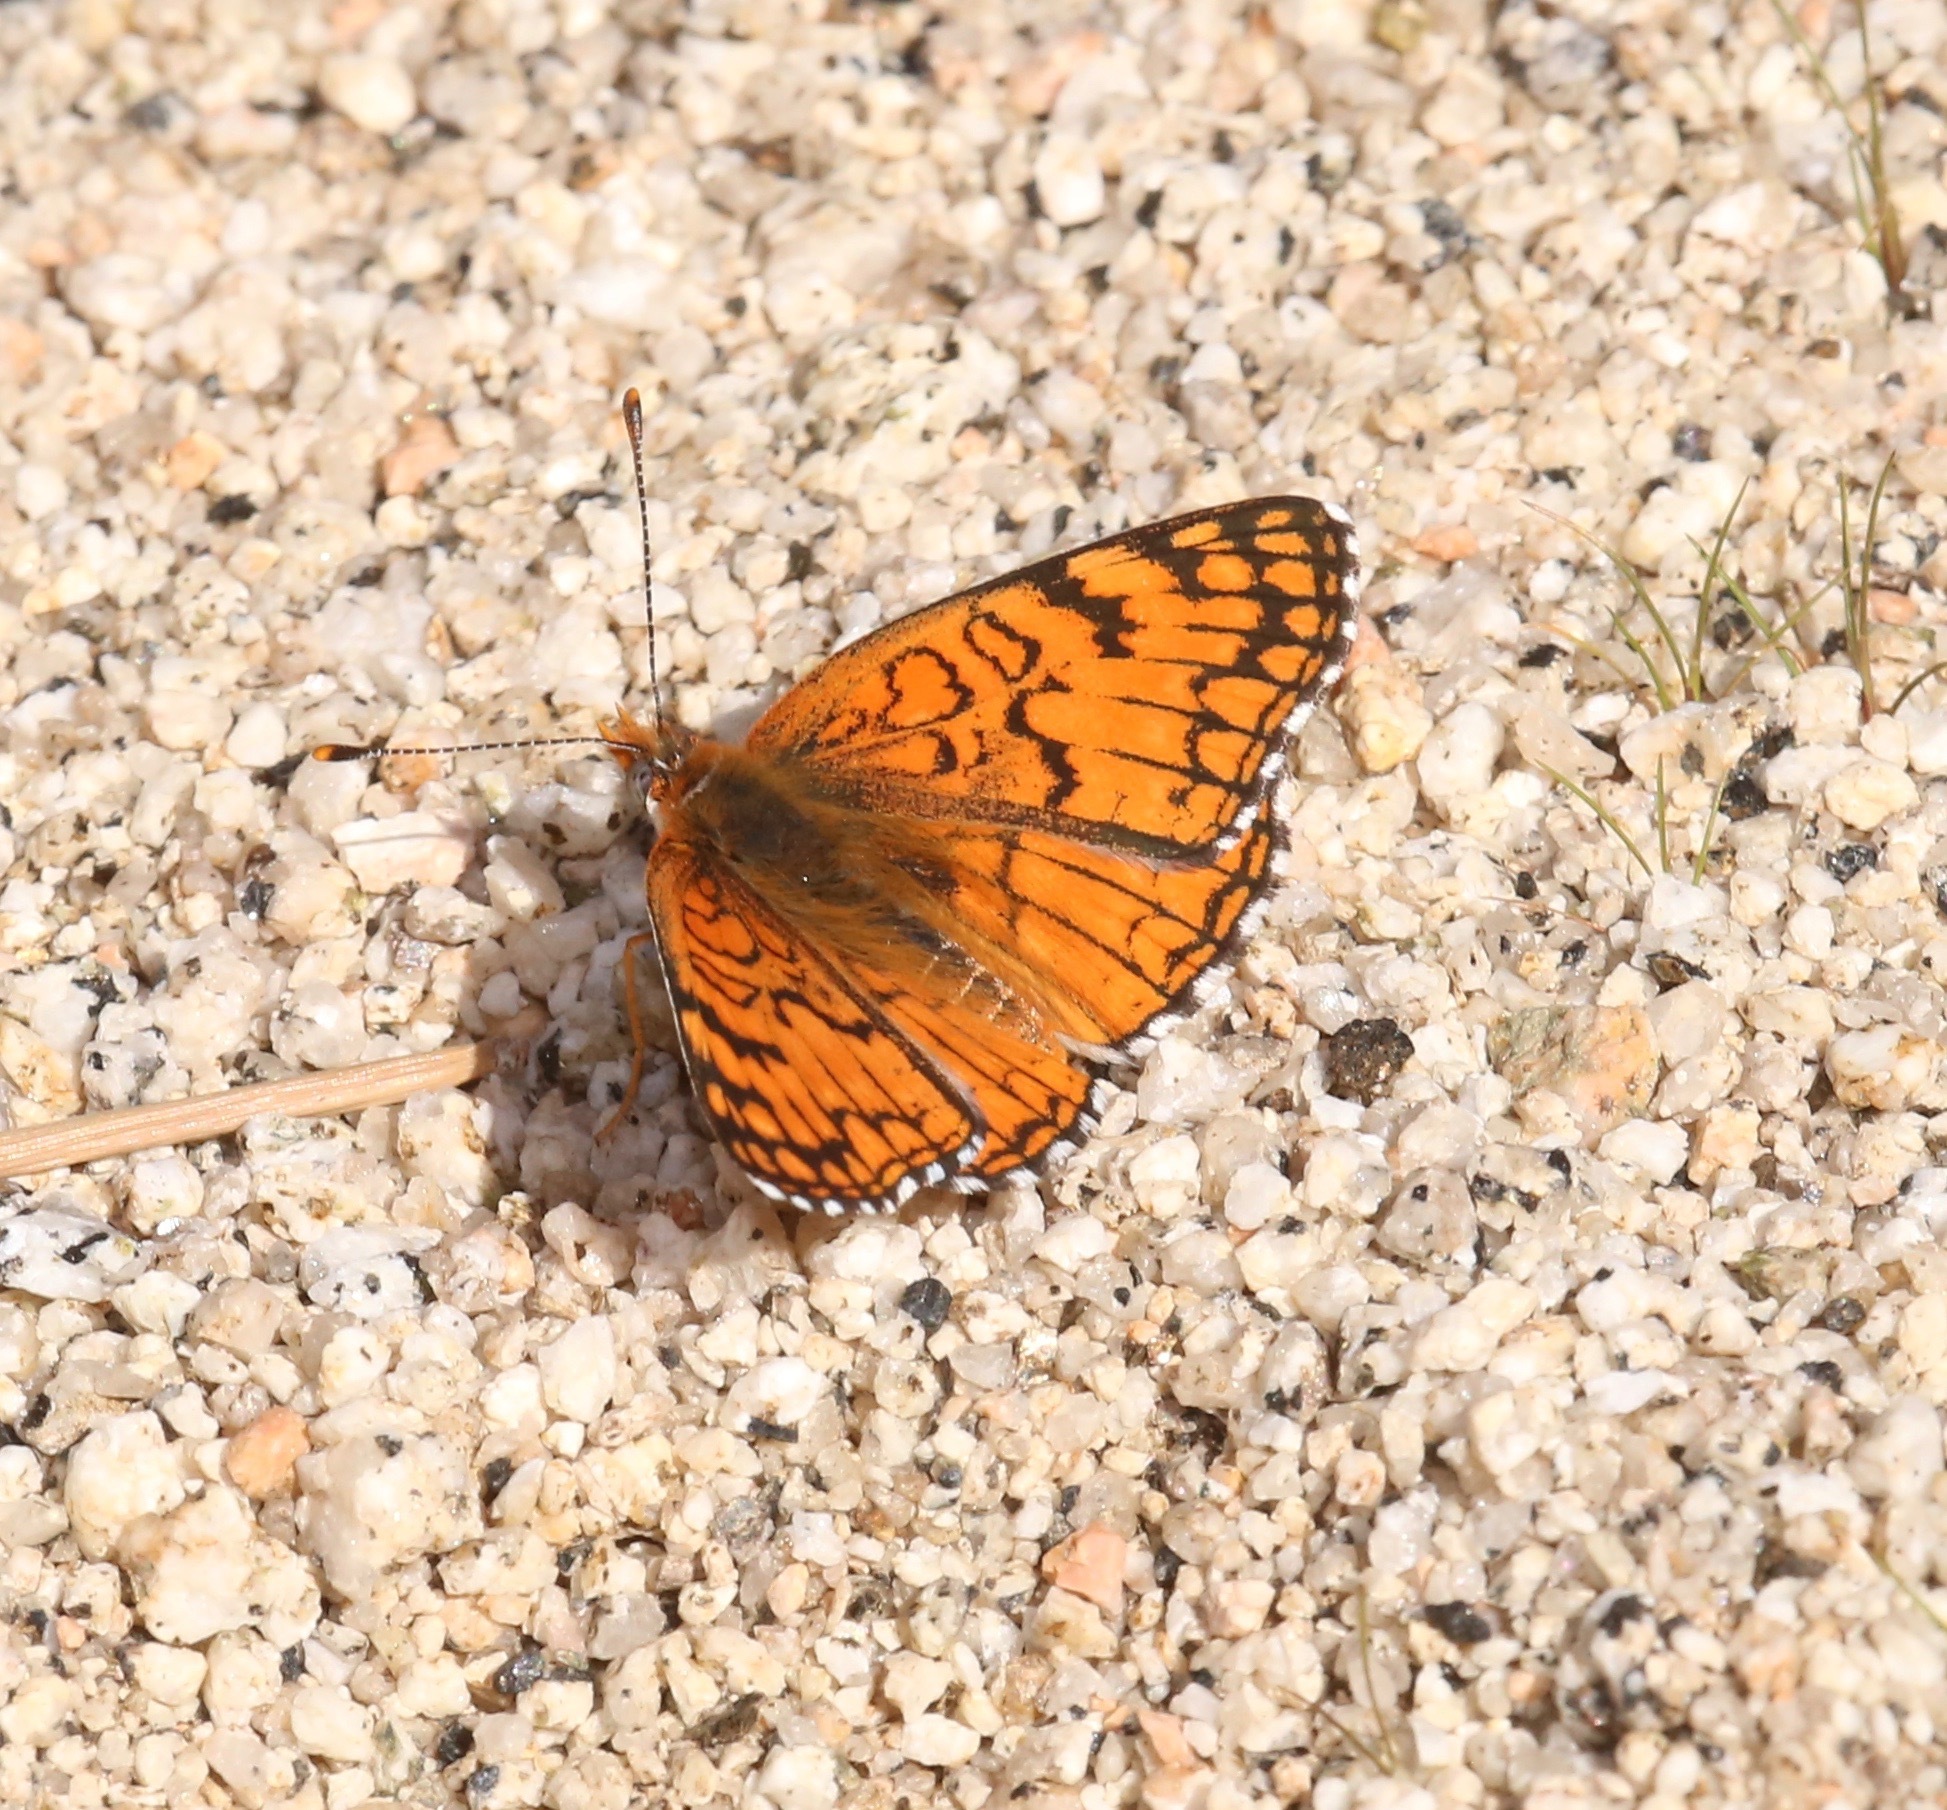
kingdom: Animalia
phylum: Arthropoda
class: Insecta
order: Lepidoptera
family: Nymphalidae
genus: Chlosyne
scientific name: Chlosyne acastus
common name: Sagebrush checkerspot
